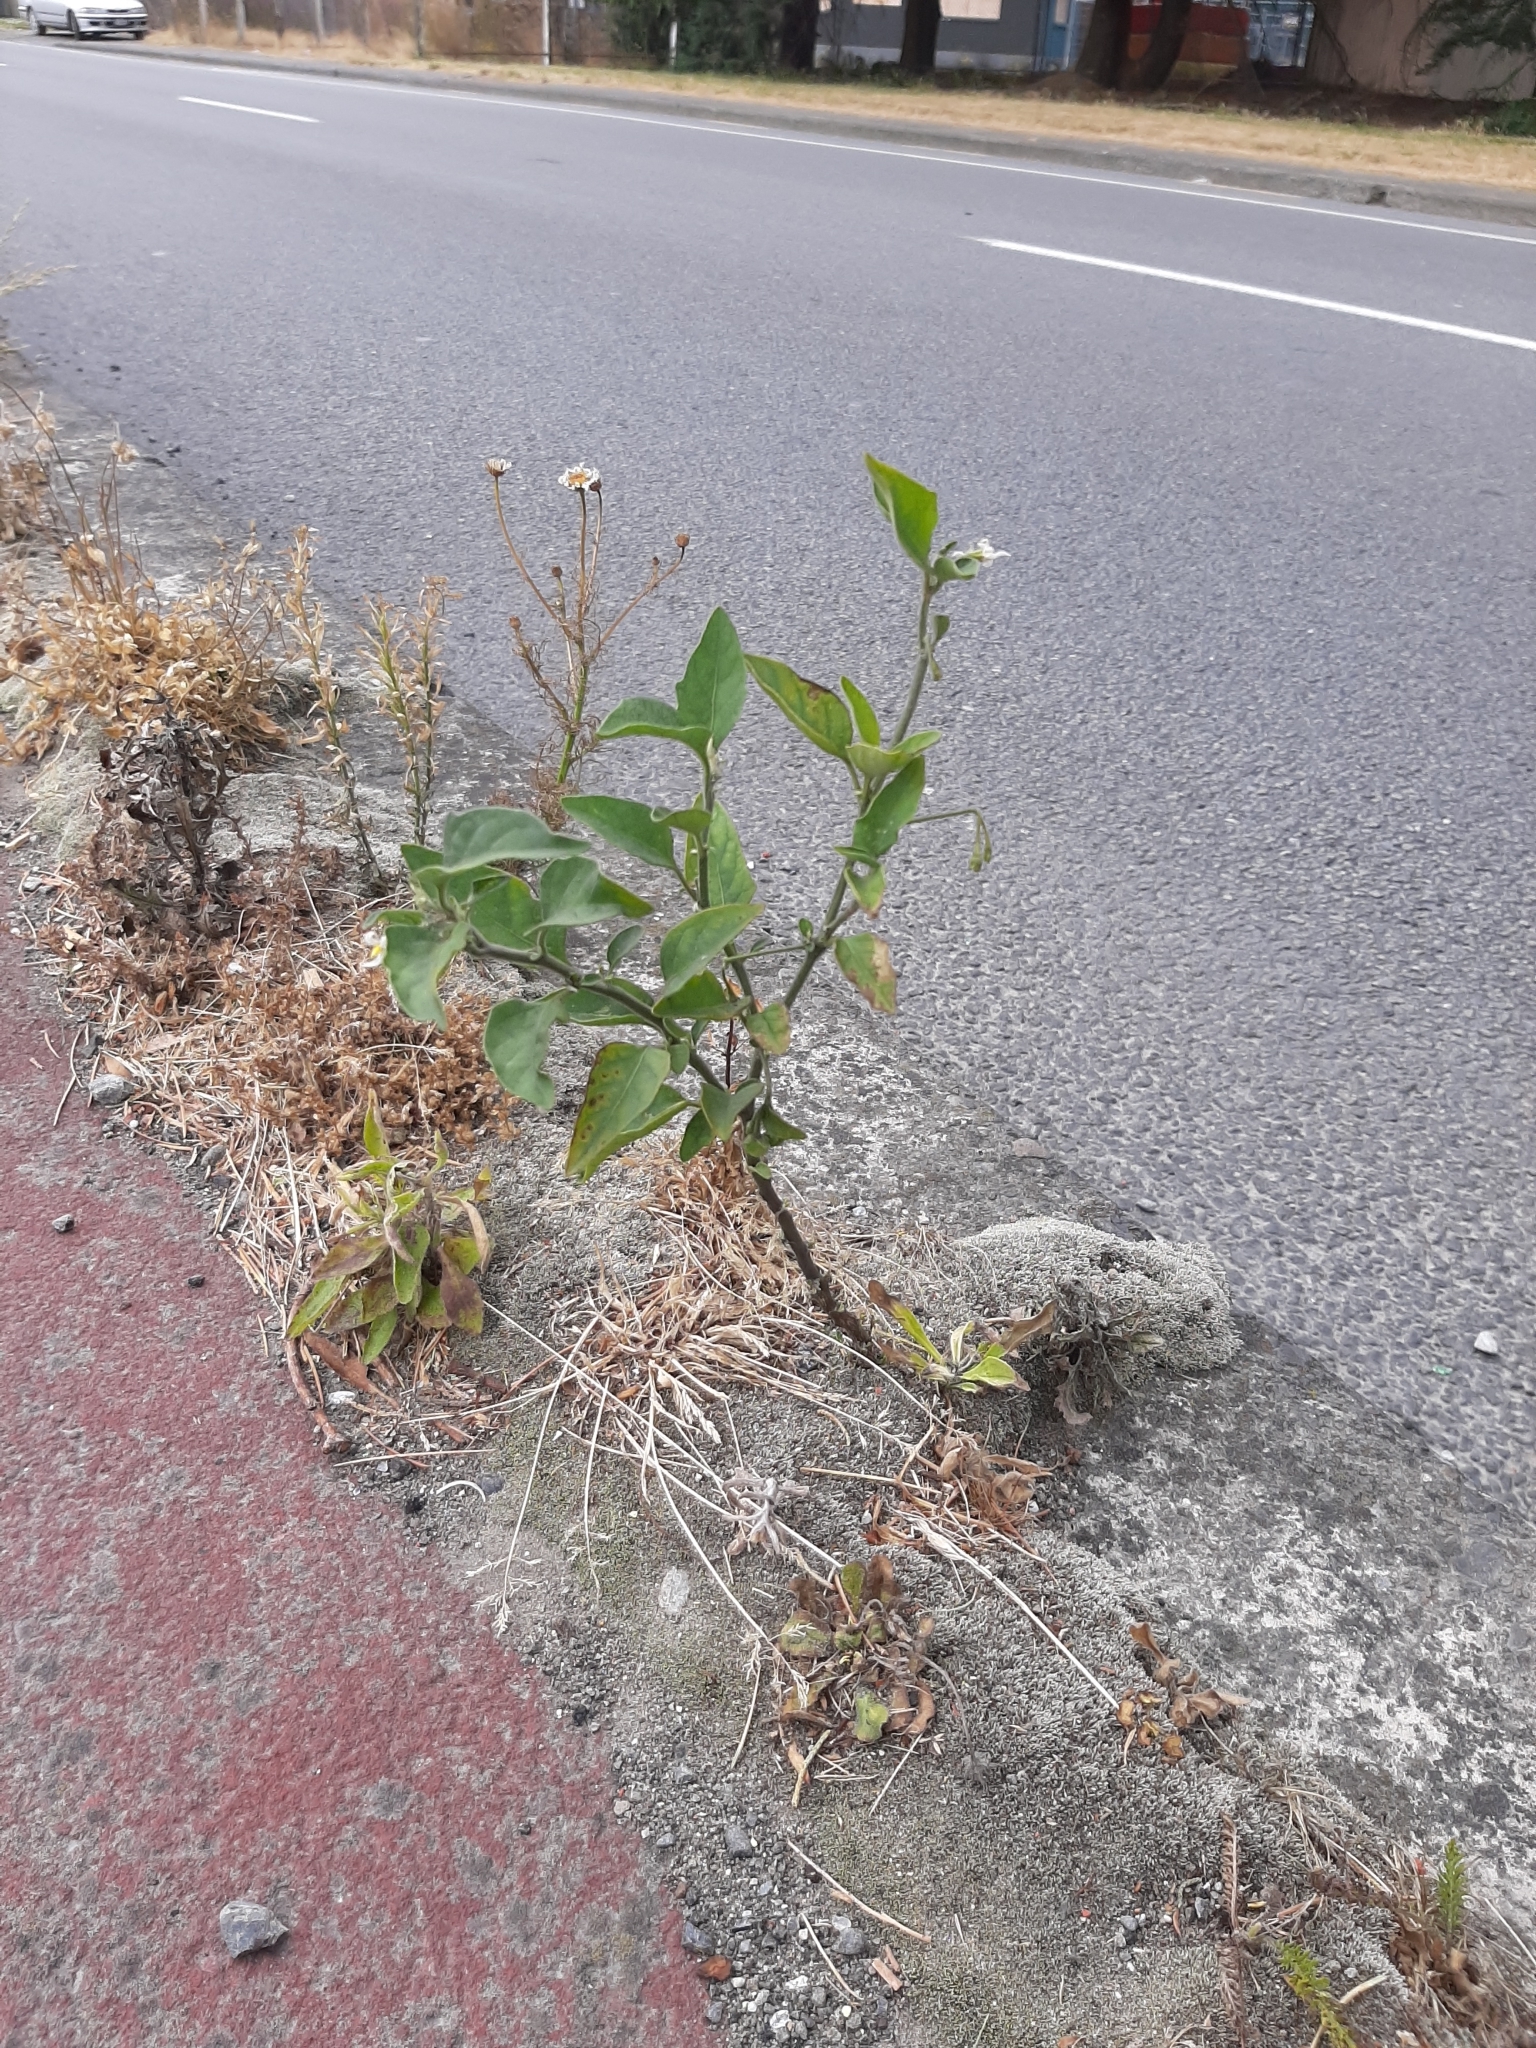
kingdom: Plantae
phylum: Tracheophyta
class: Magnoliopsida
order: Solanales
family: Solanaceae
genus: Solanum
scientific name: Solanum chenopodioides
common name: Tall nightshade
